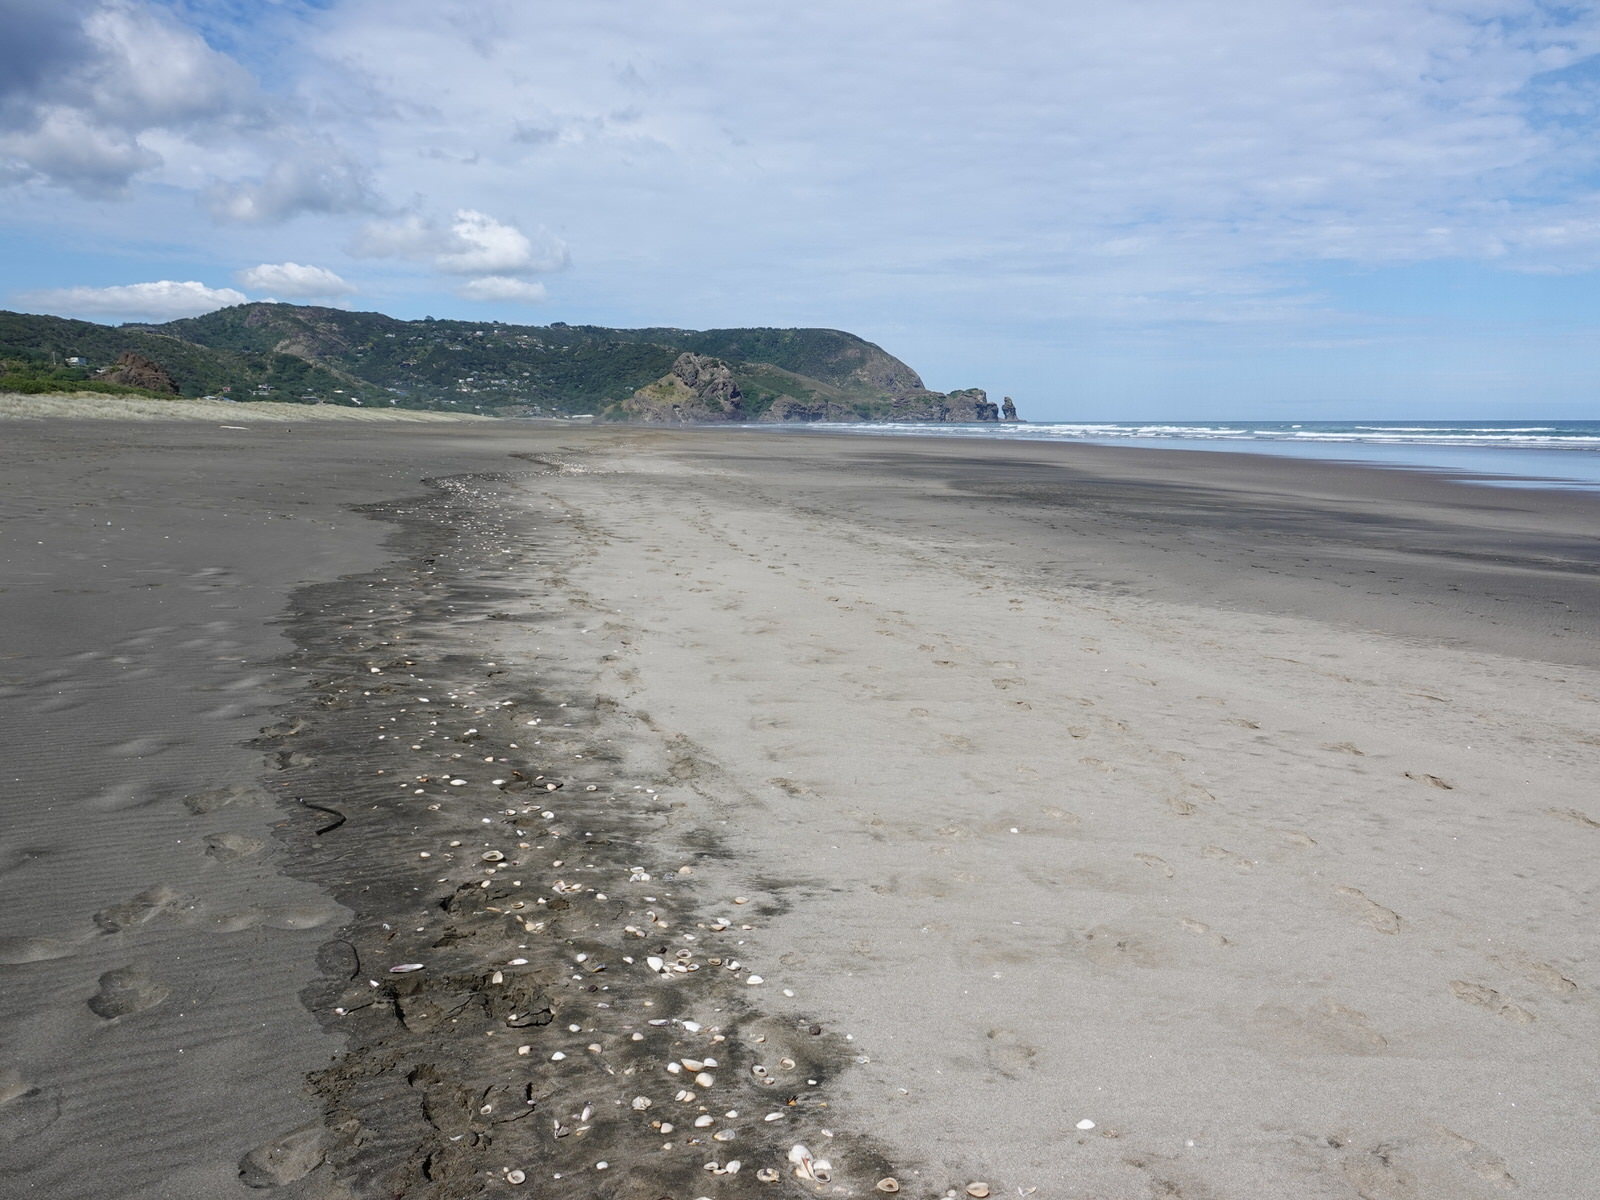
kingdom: Animalia
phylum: Mollusca
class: Gastropoda
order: Littorinimorpha
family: Cymatiidae
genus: Argobuccinum
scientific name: Argobuccinum pustulosum
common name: Pustular triton
